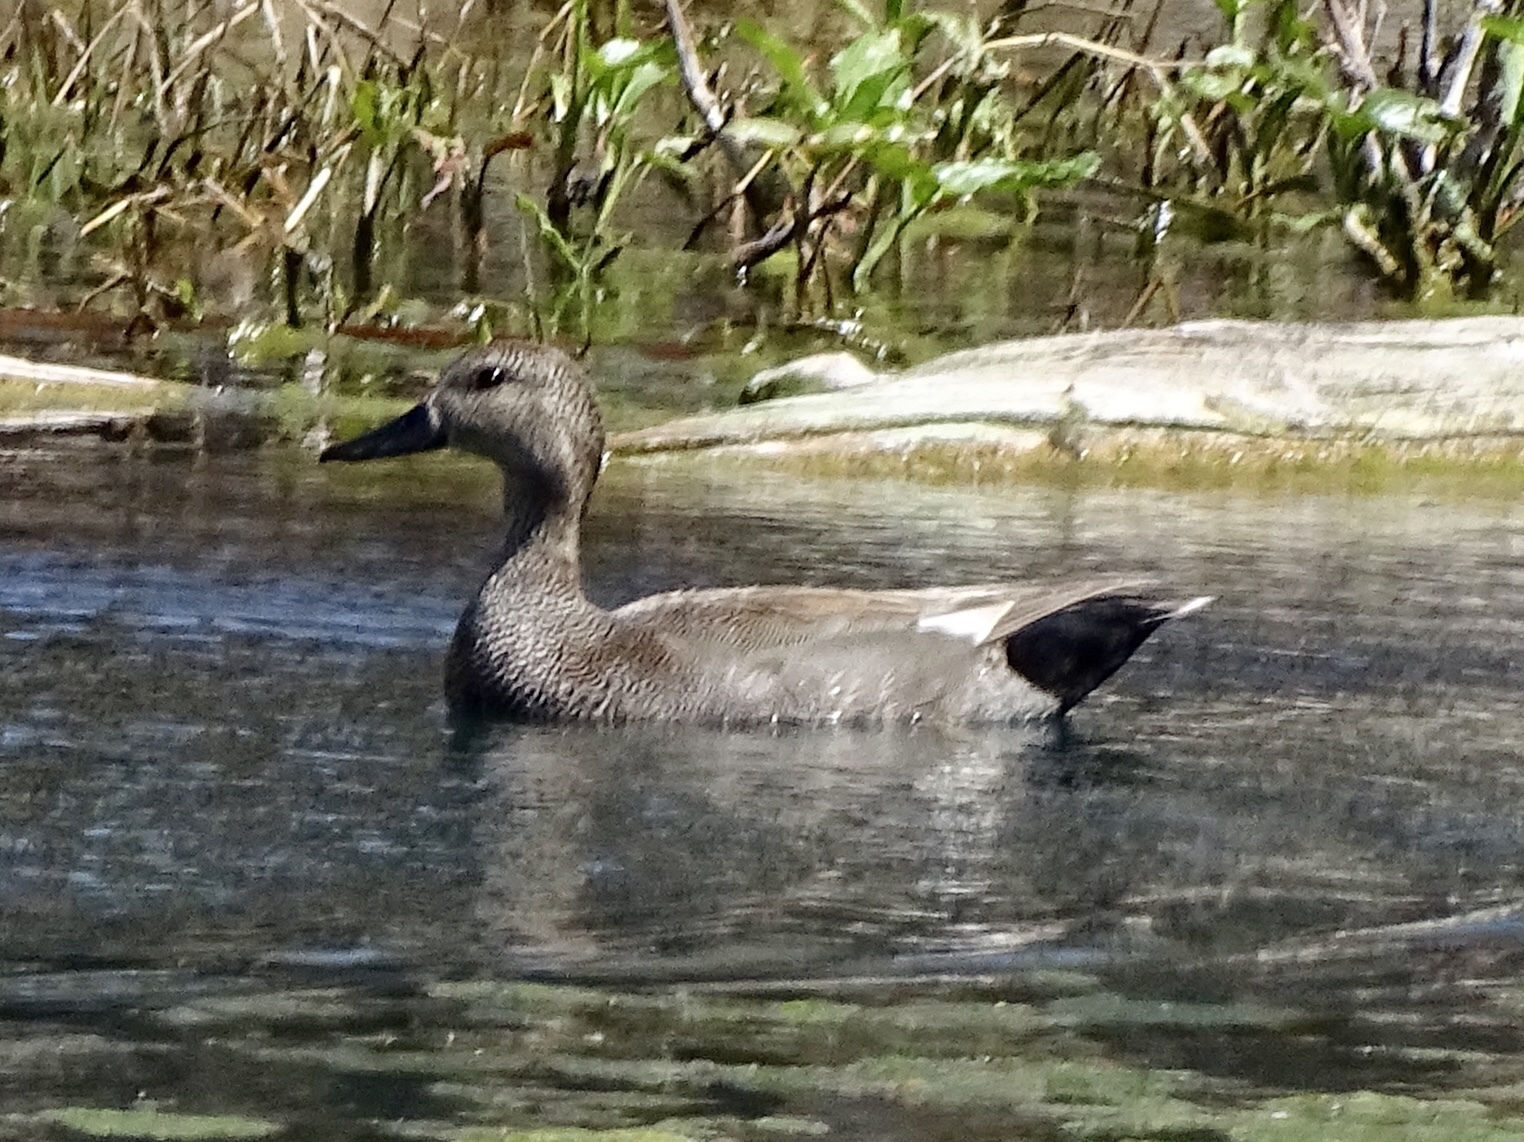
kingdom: Animalia
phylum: Chordata
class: Aves
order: Anseriformes
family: Anatidae
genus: Mareca
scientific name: Mareca strepera
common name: Gadwall
